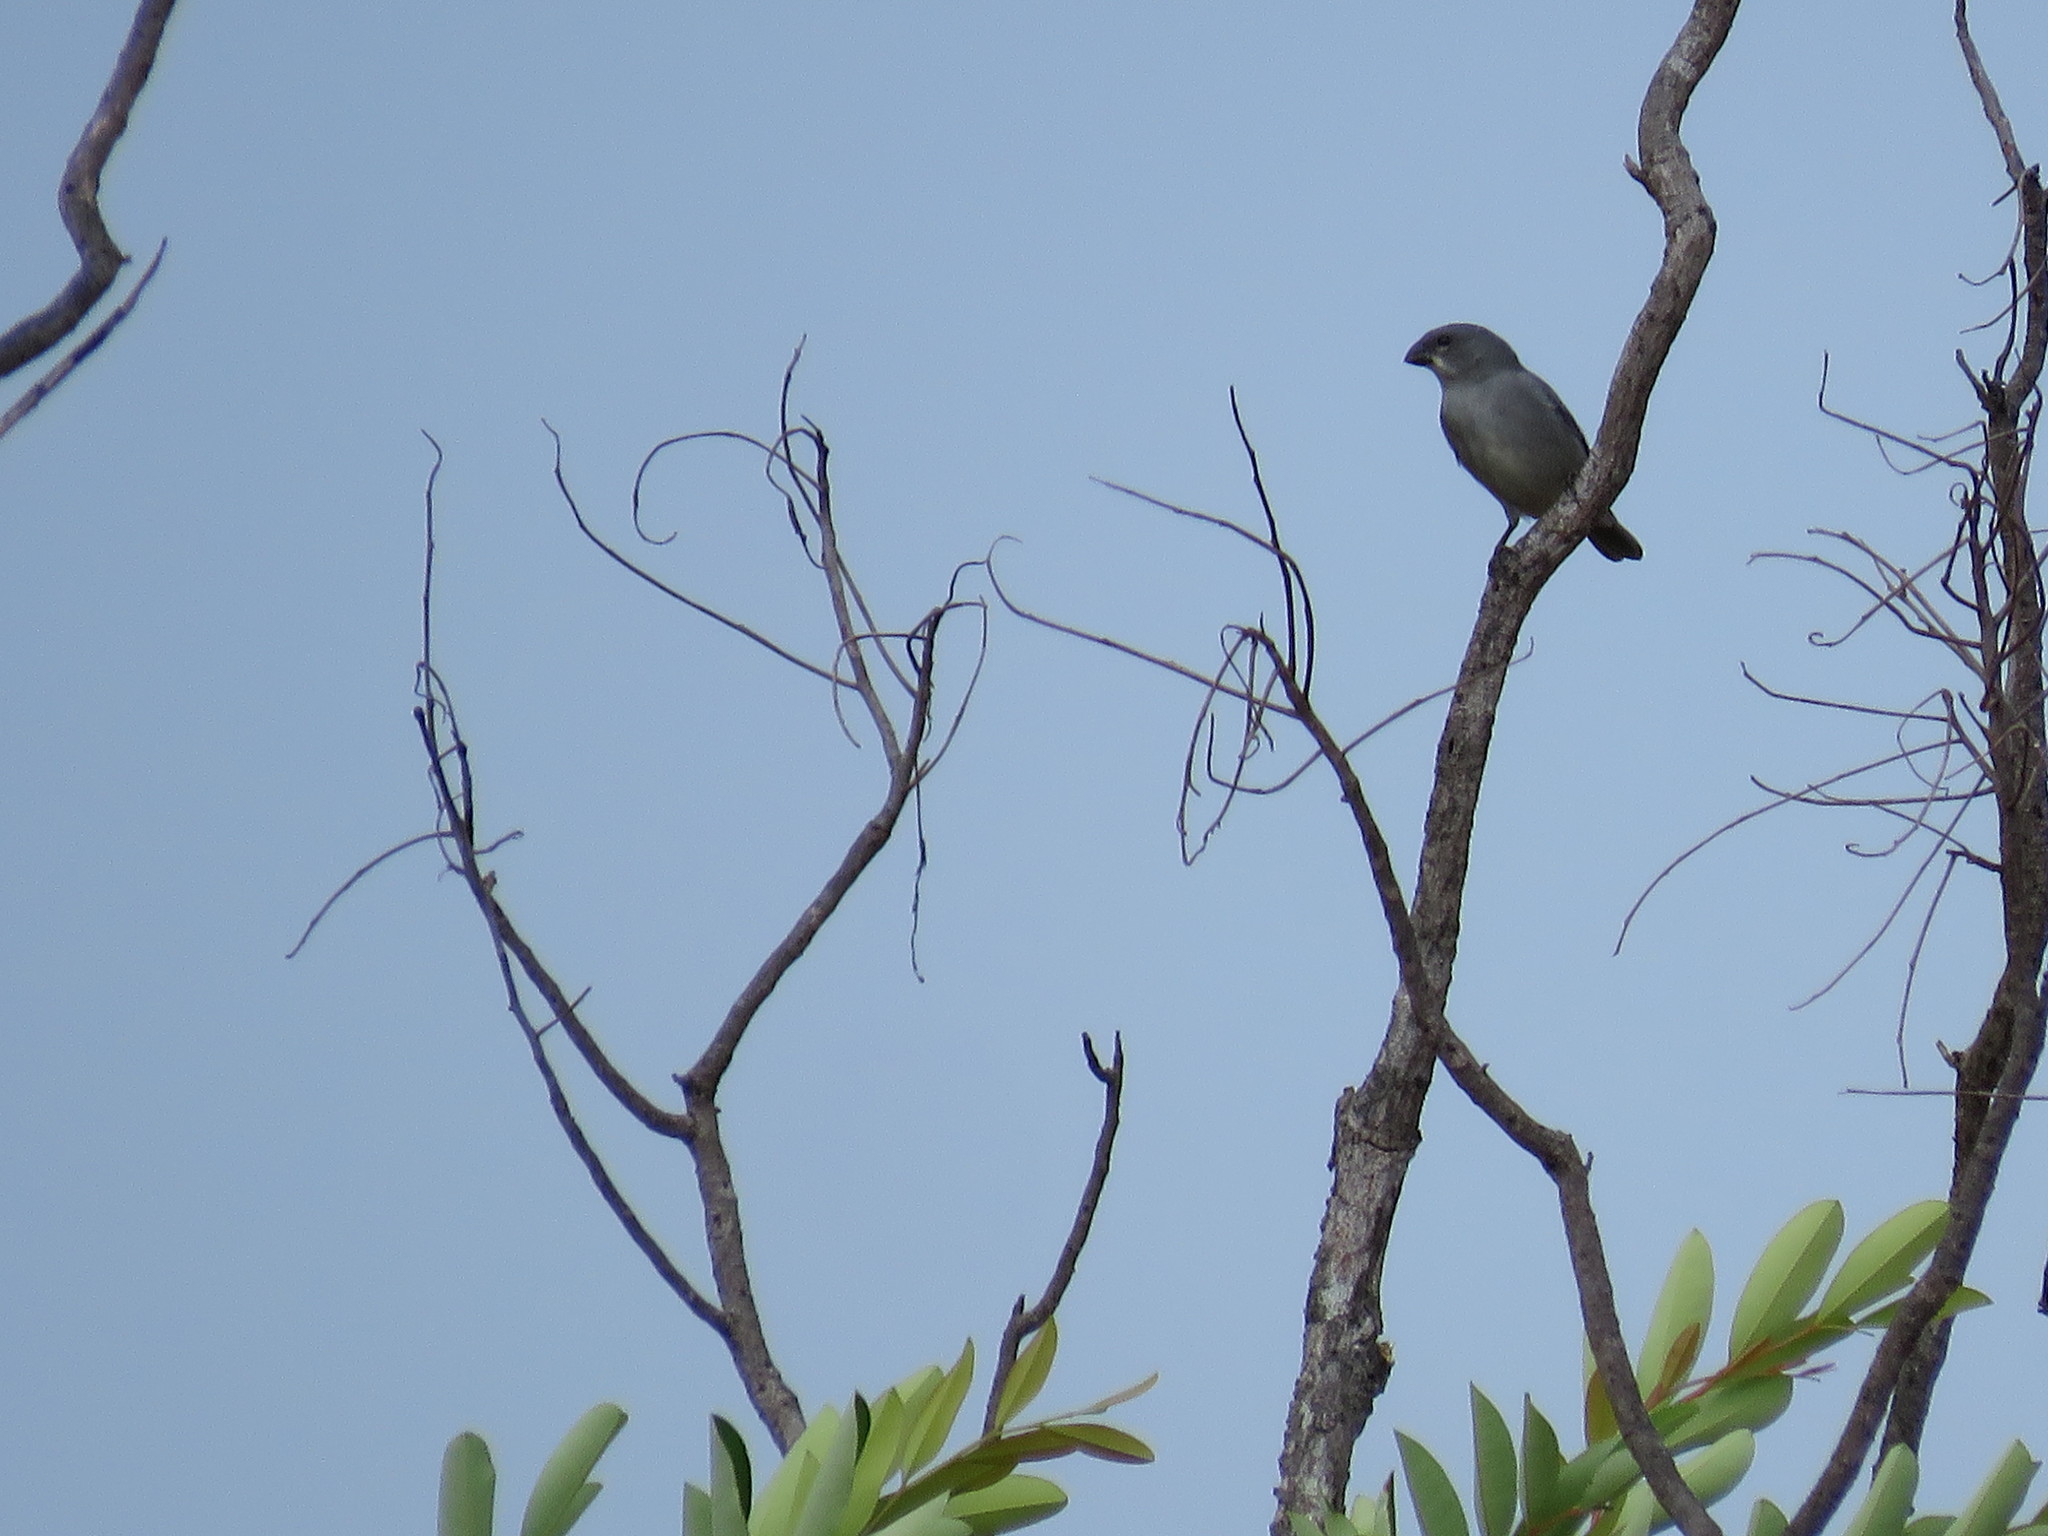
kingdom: Animalia
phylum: Chordata
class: Aves
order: Passeriformes
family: Thraupidae
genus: Sporophila
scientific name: Sporophila plumbea
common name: Plumbeous seedeater
